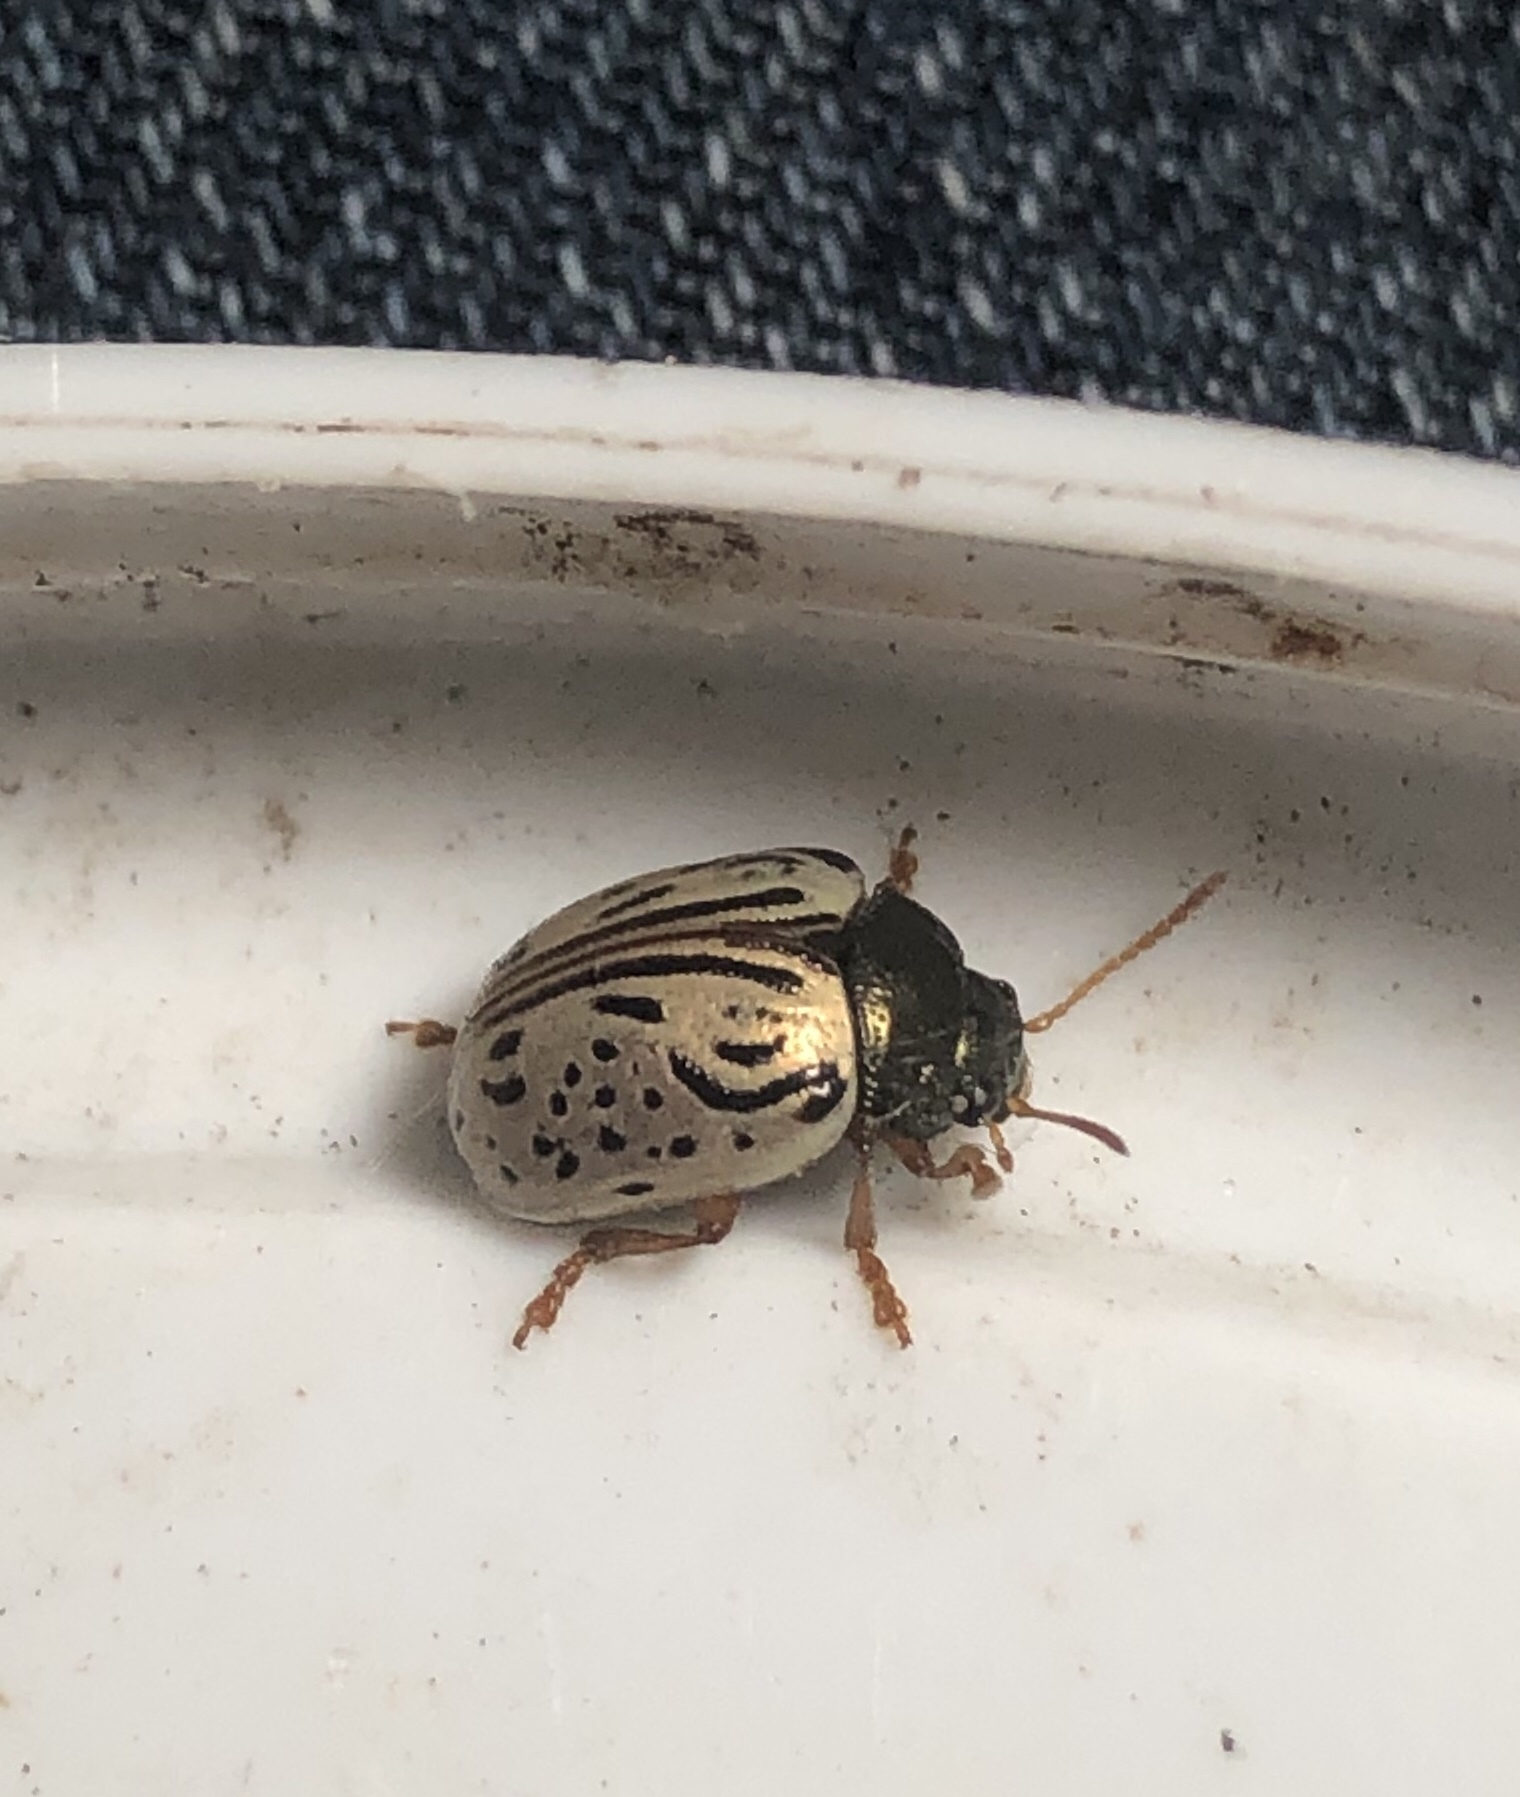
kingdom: Animalia
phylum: Arthropoda
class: Insecta
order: Coleoptera
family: Chrysomelidae
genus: Calligrapha
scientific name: Calligrapha philadelphica
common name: Dogwood leaf beetle
